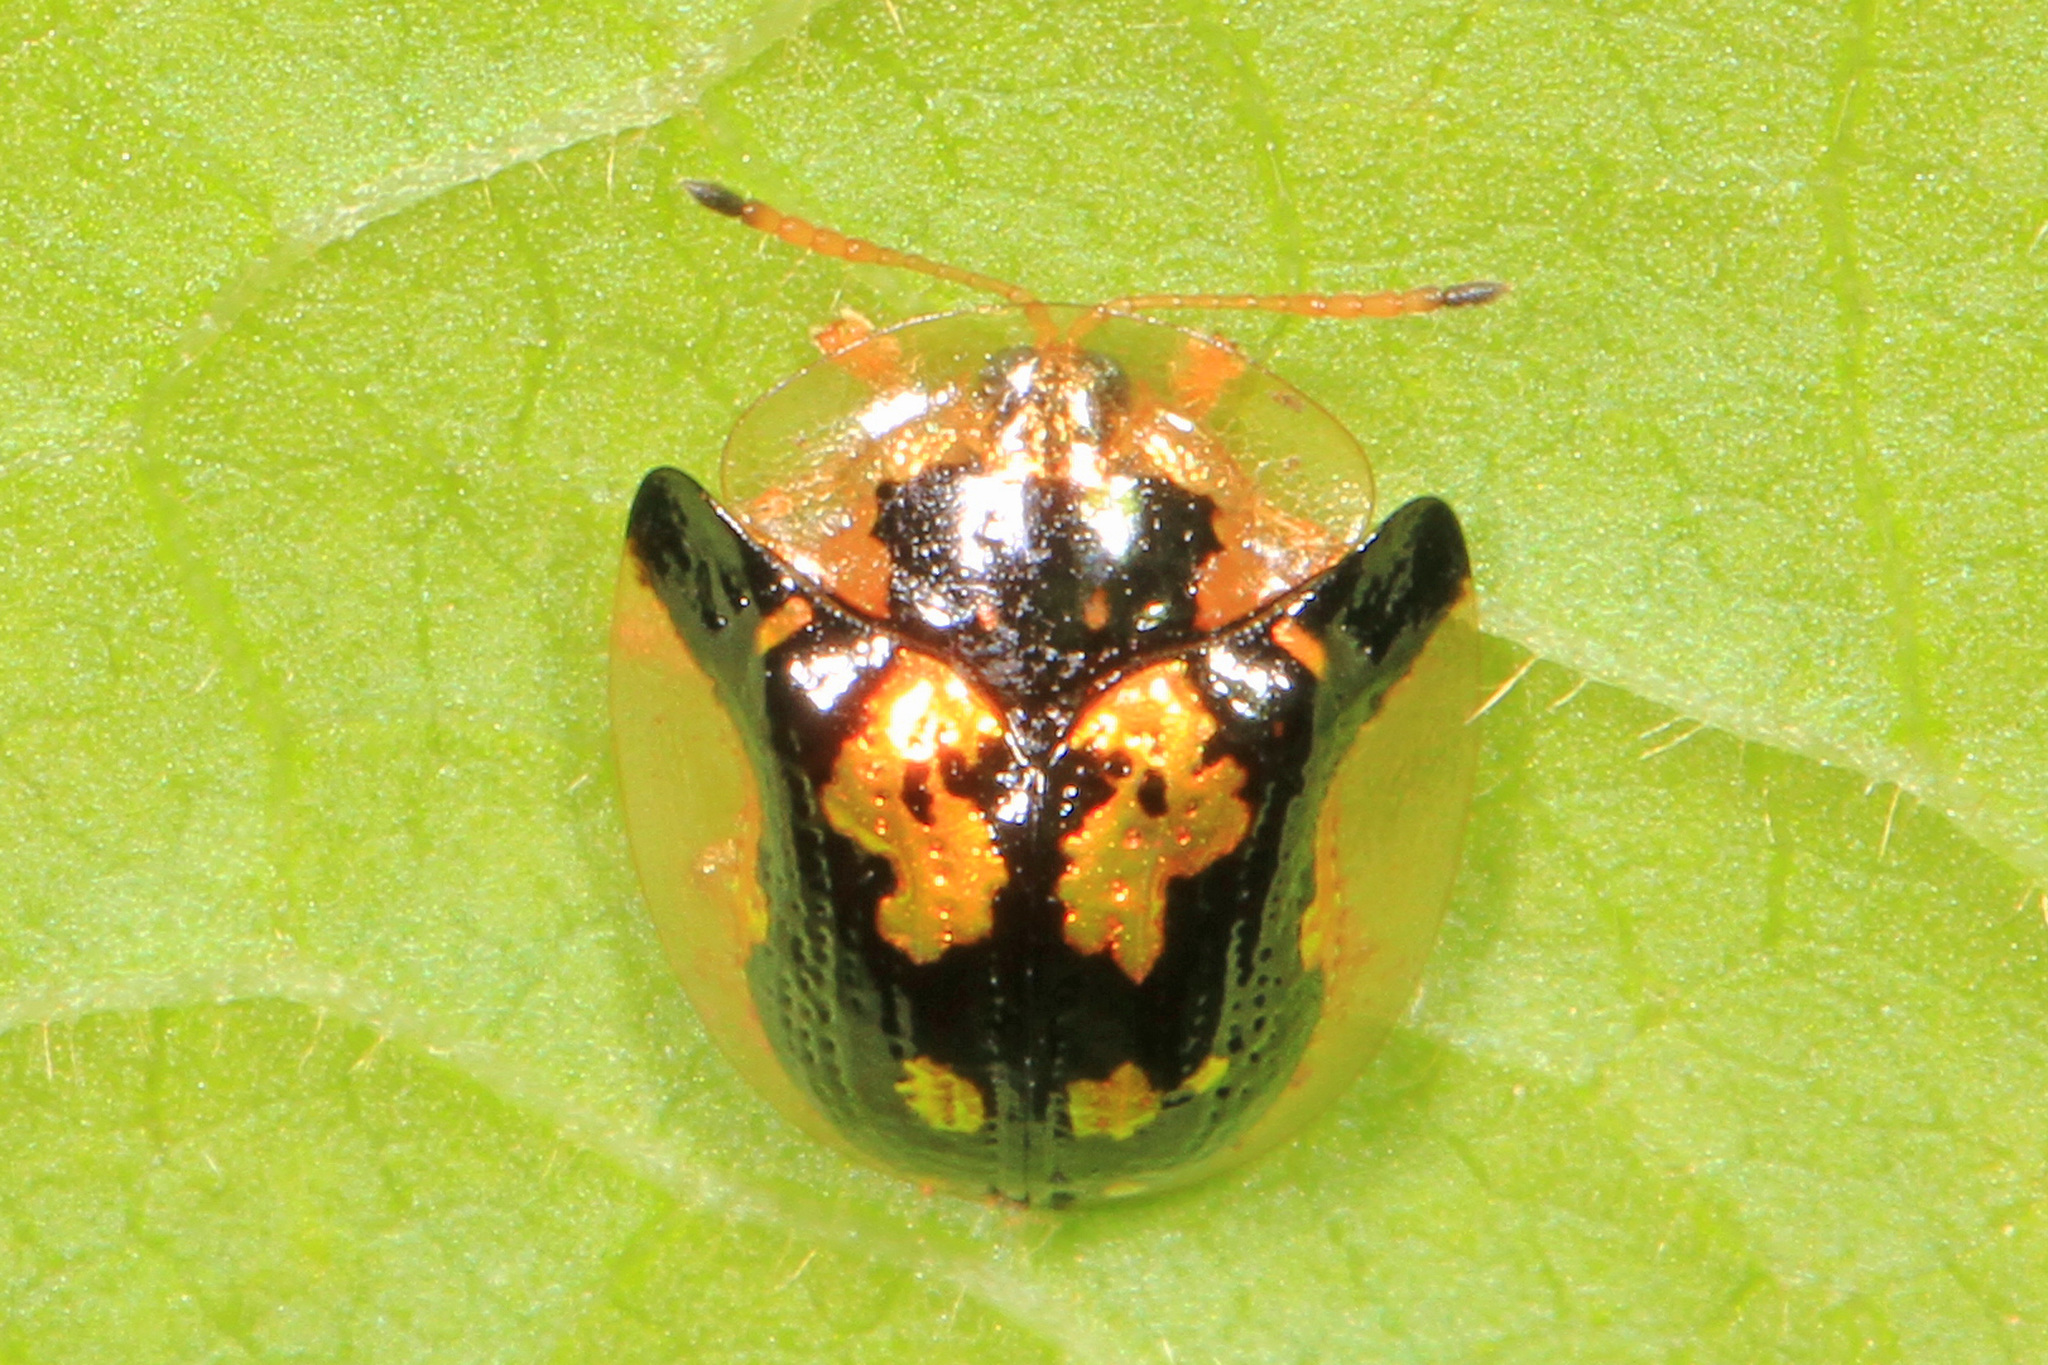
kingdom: Animalia
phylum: Arthropoda
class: Insecta
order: Coleoptera
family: Chrysomelidae
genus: Deloyala
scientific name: Deloyala guttata
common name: Mottled tortoise beetle
